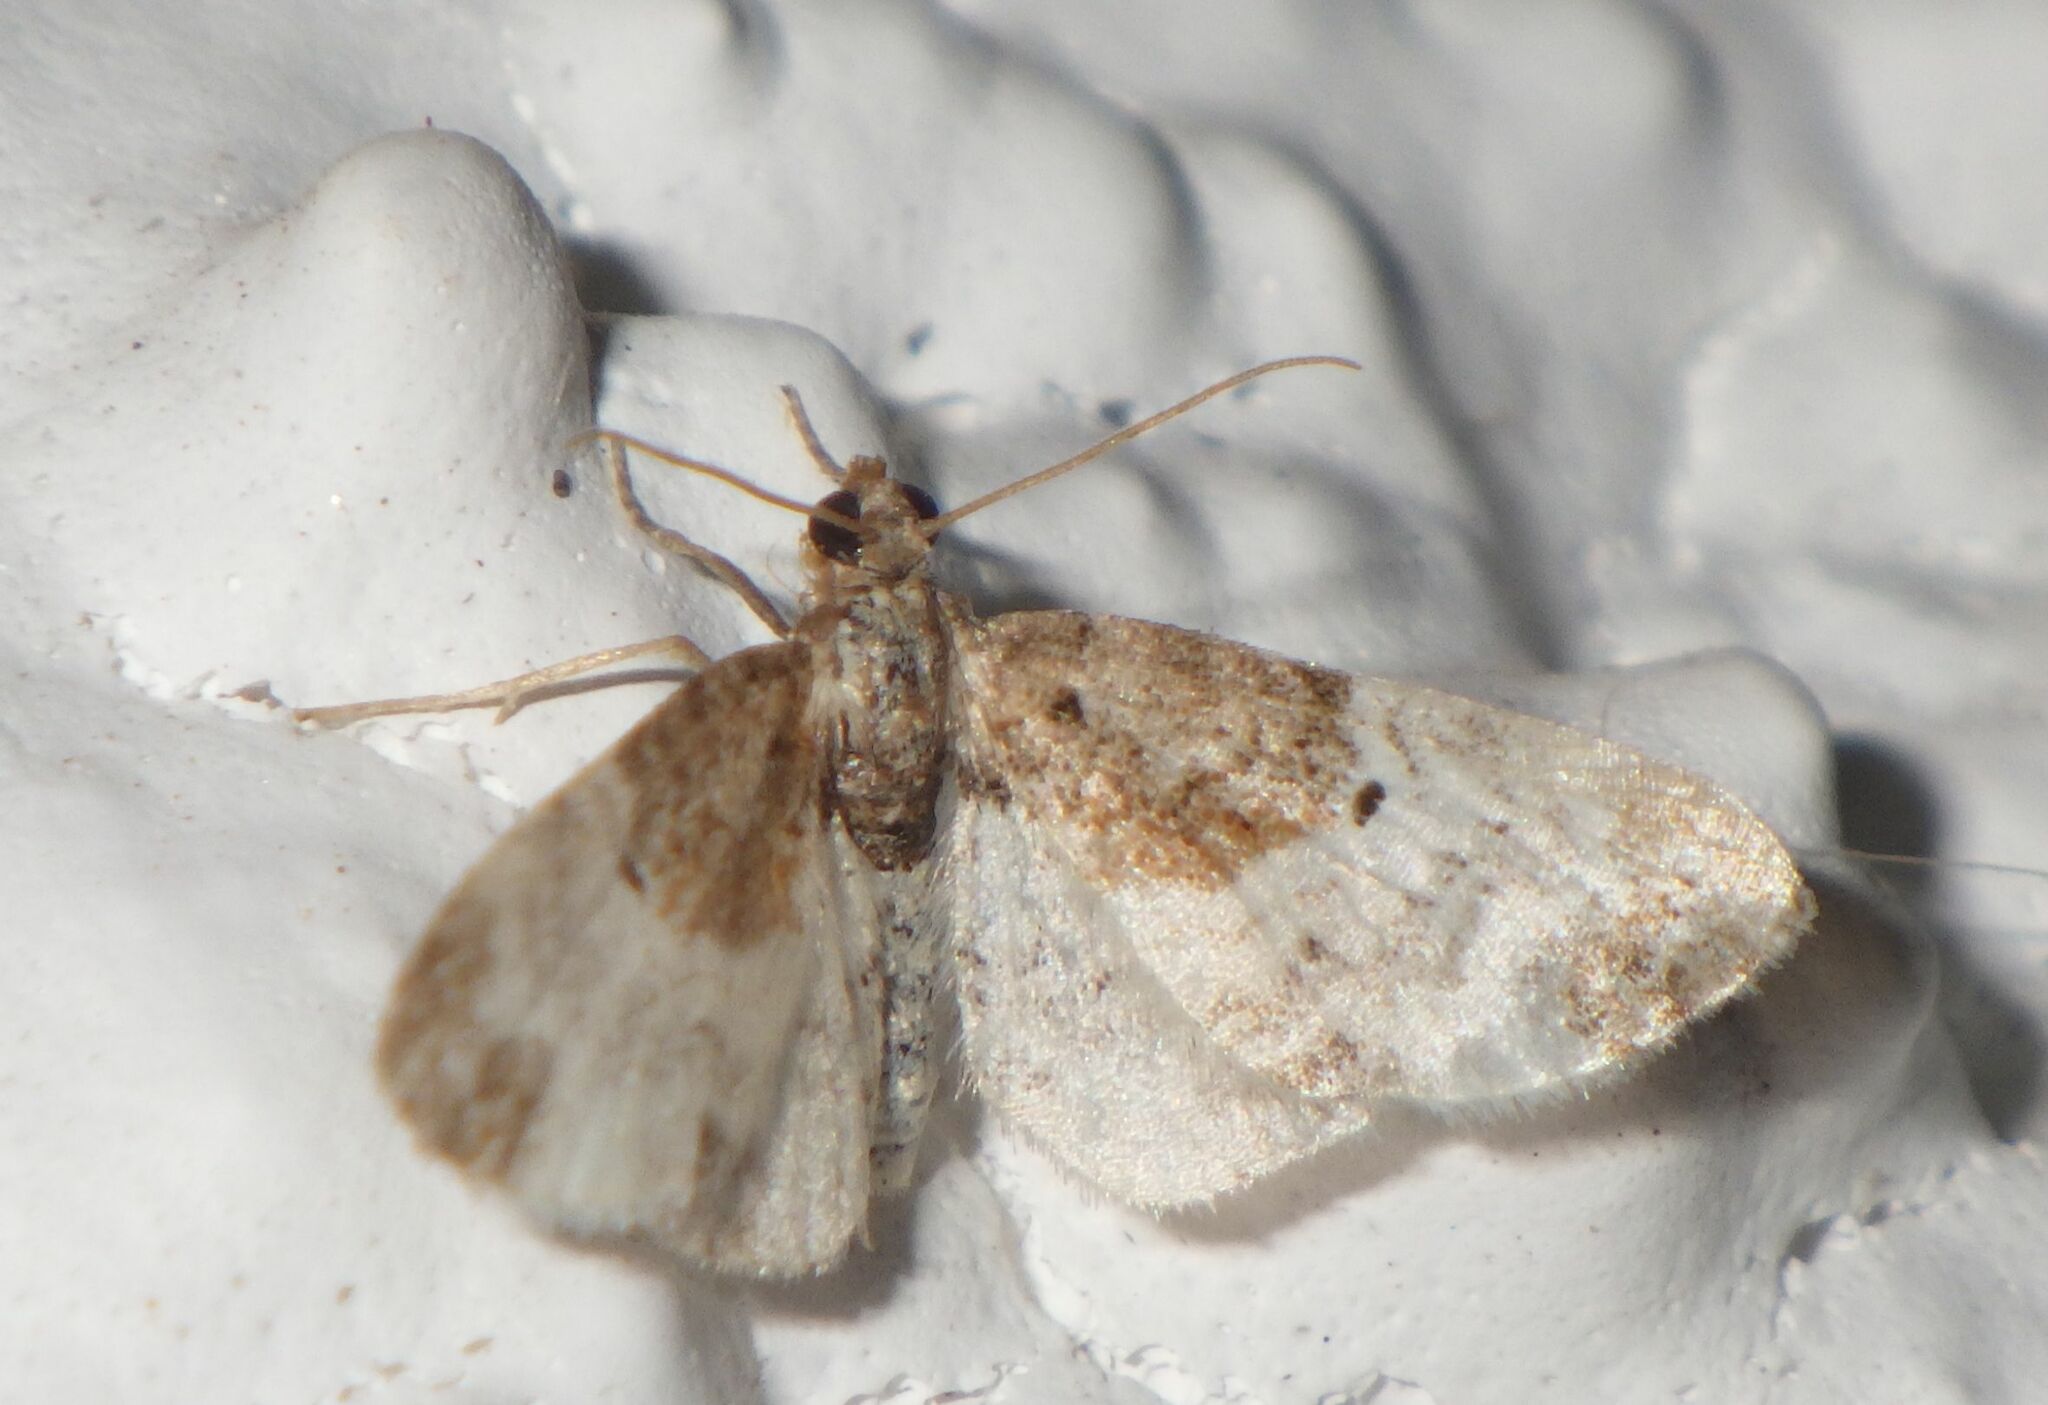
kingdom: Animalia
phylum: Arthropoda
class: Insecta
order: Lepidoptera
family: Geometridae
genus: Eupithecia
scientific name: Eupithecia breviculata
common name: Rusty-shouldered pug
